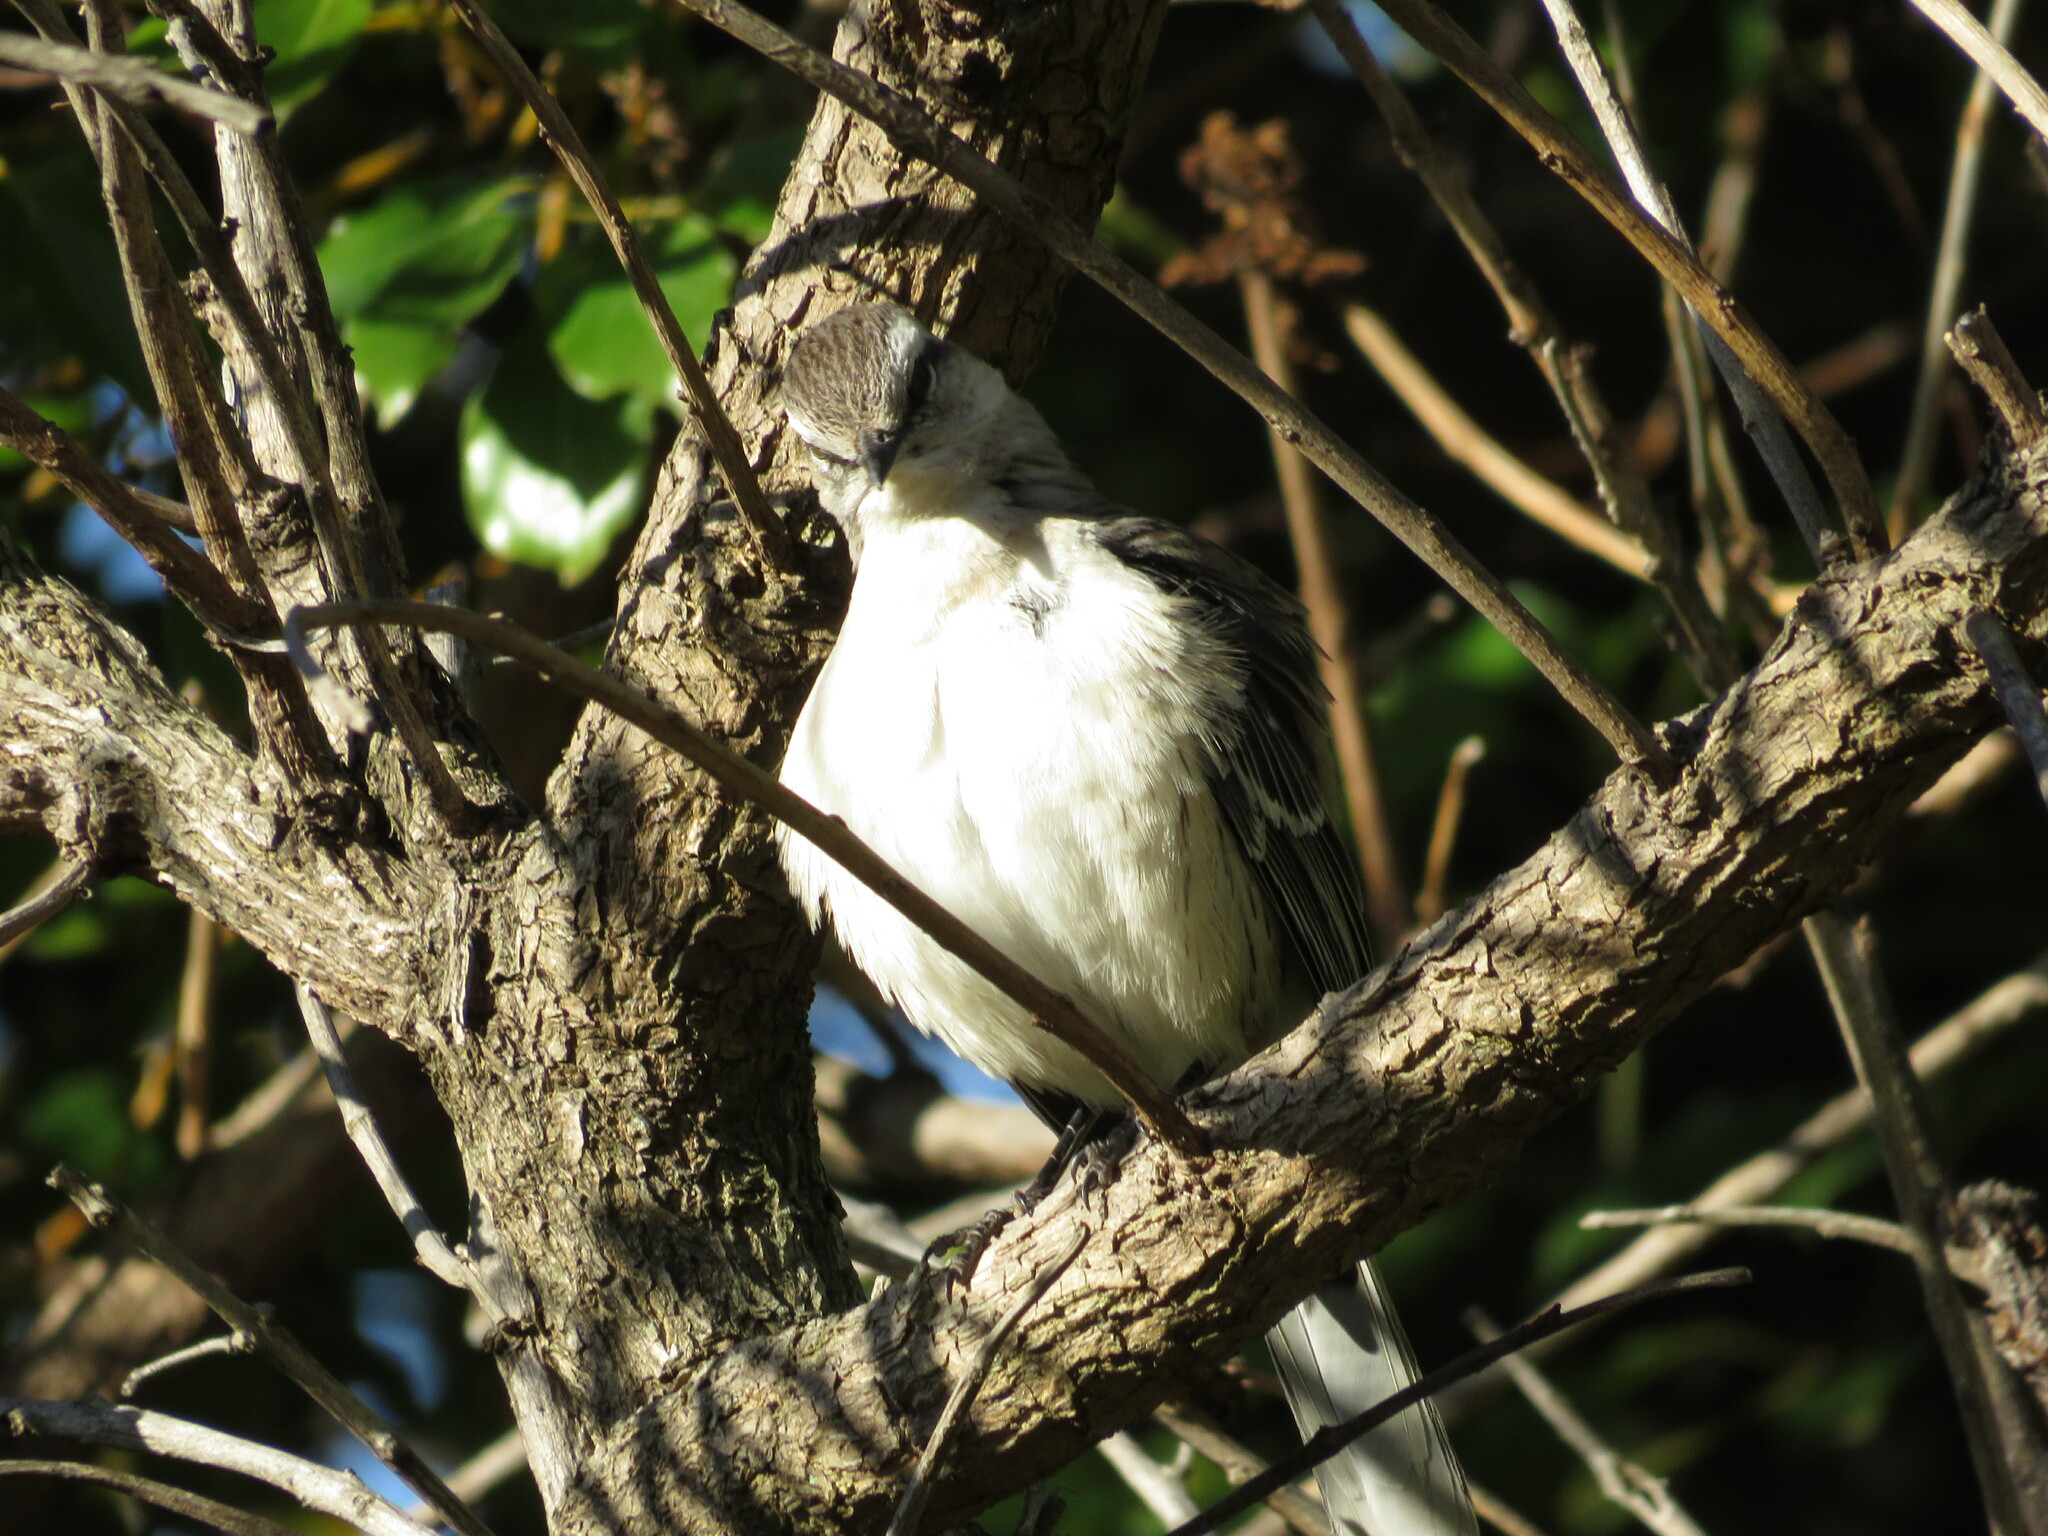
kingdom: Animalia
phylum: Chordata
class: Aves
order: Passeriformes
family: Mimidae
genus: Mimus
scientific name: Mimus saturninus
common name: Chalk-browed mockingbird
